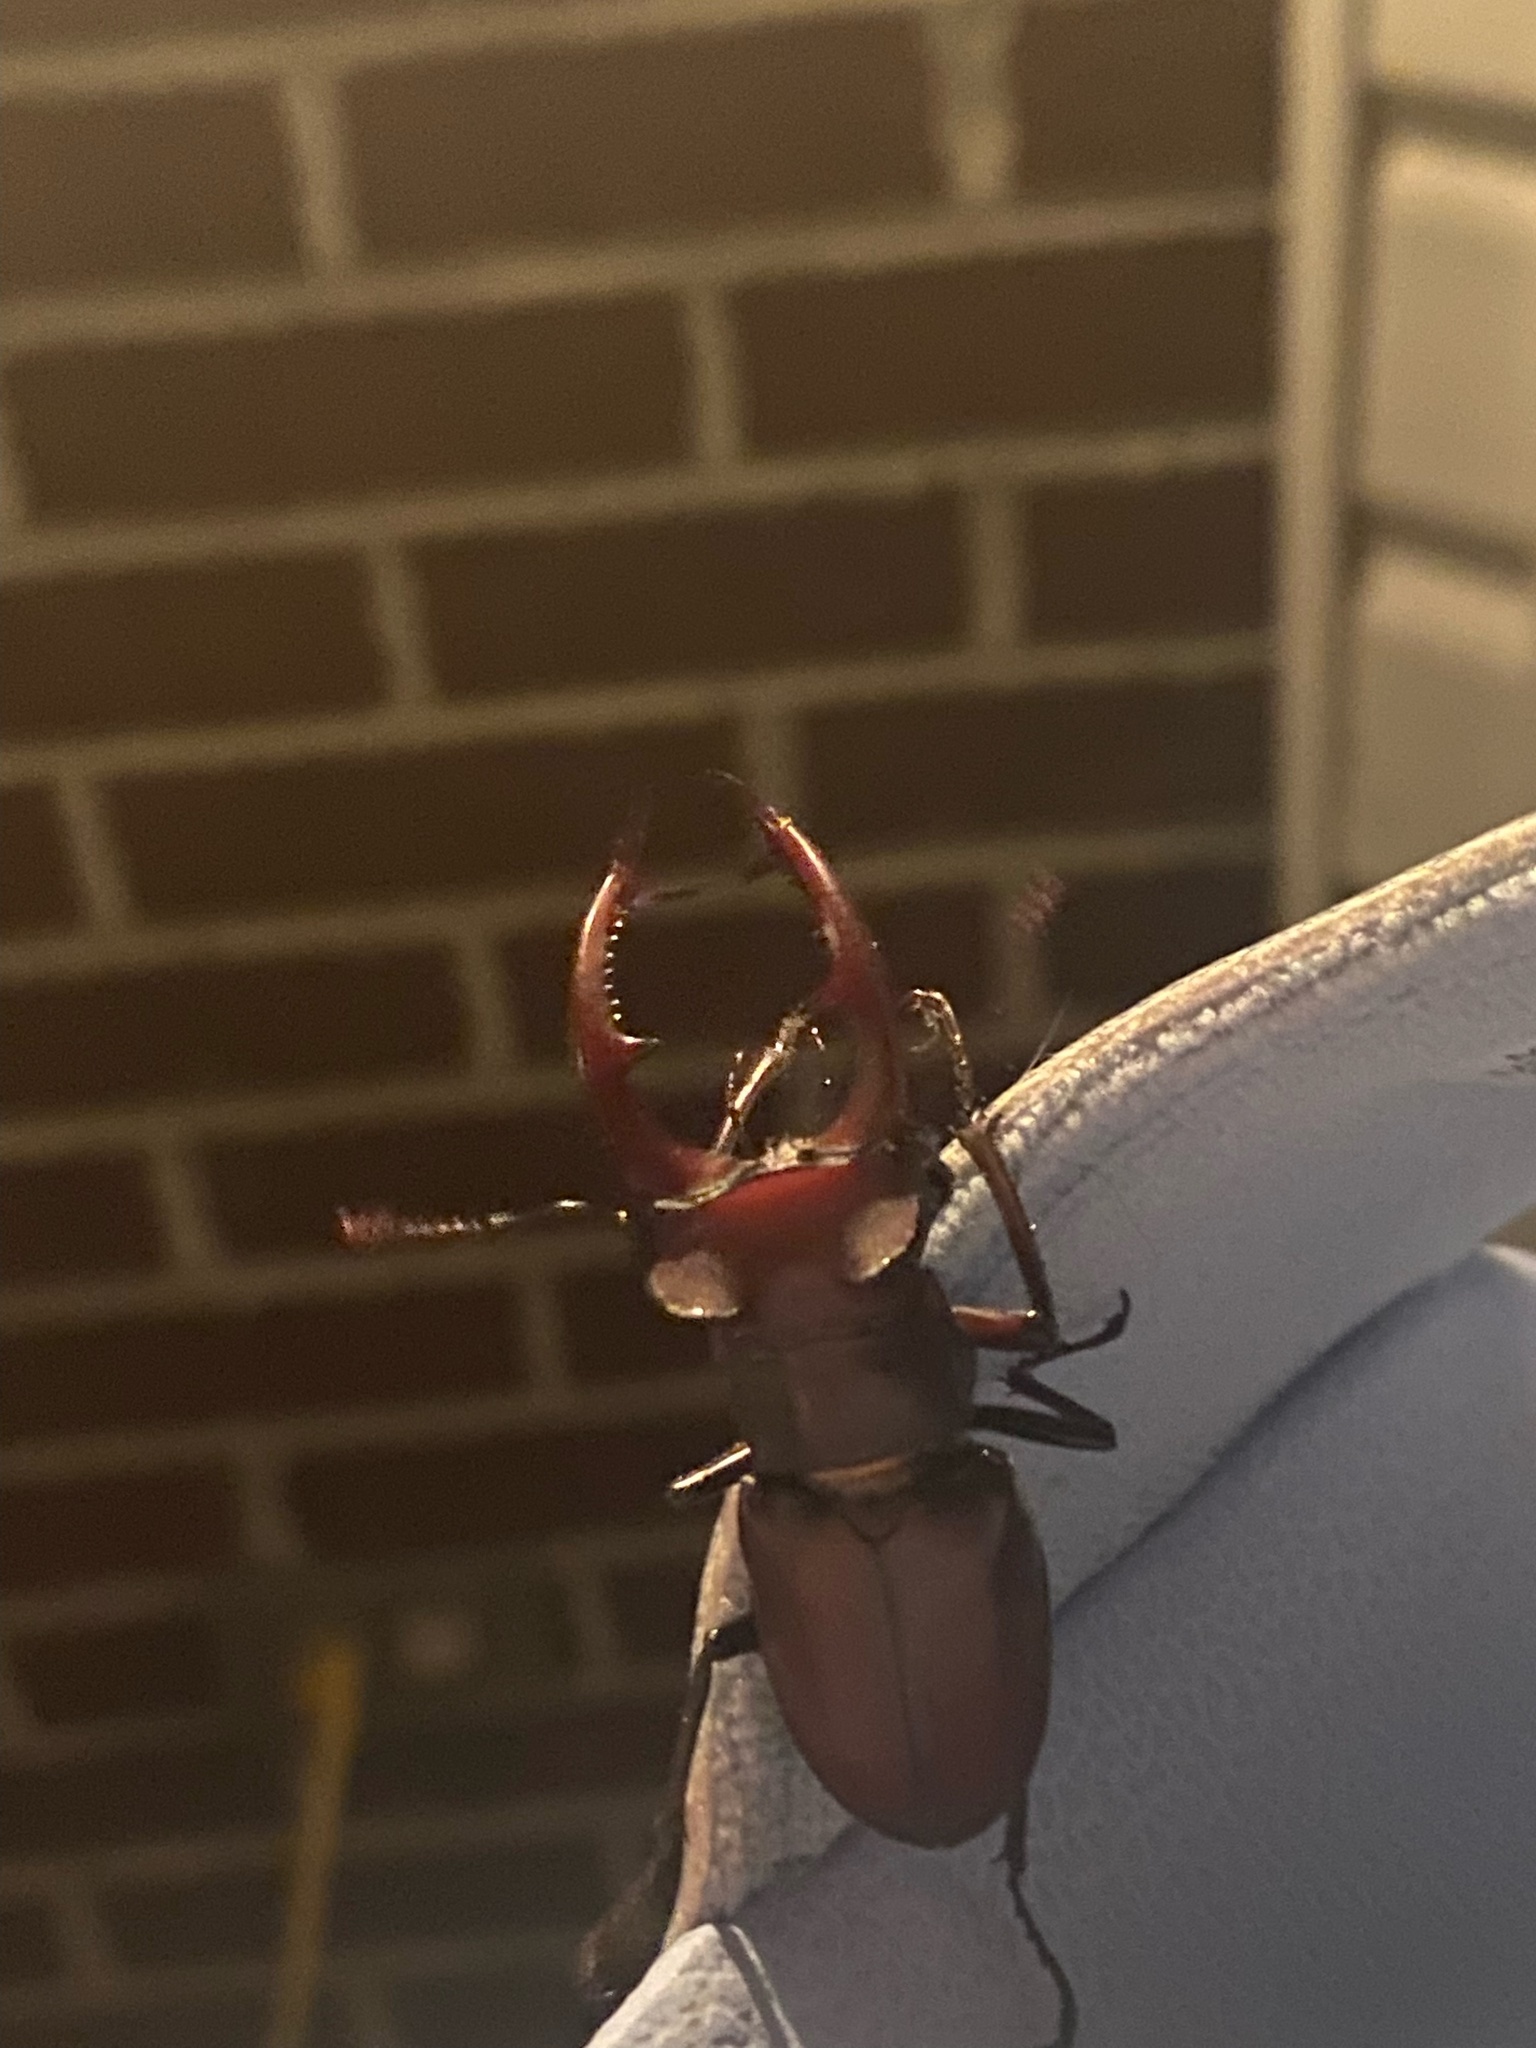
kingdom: Animalia
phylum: Arthropoda
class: Insecta
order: Coleoptera
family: Lucanidae
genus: Lucanus
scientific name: Lucanus elaphus
